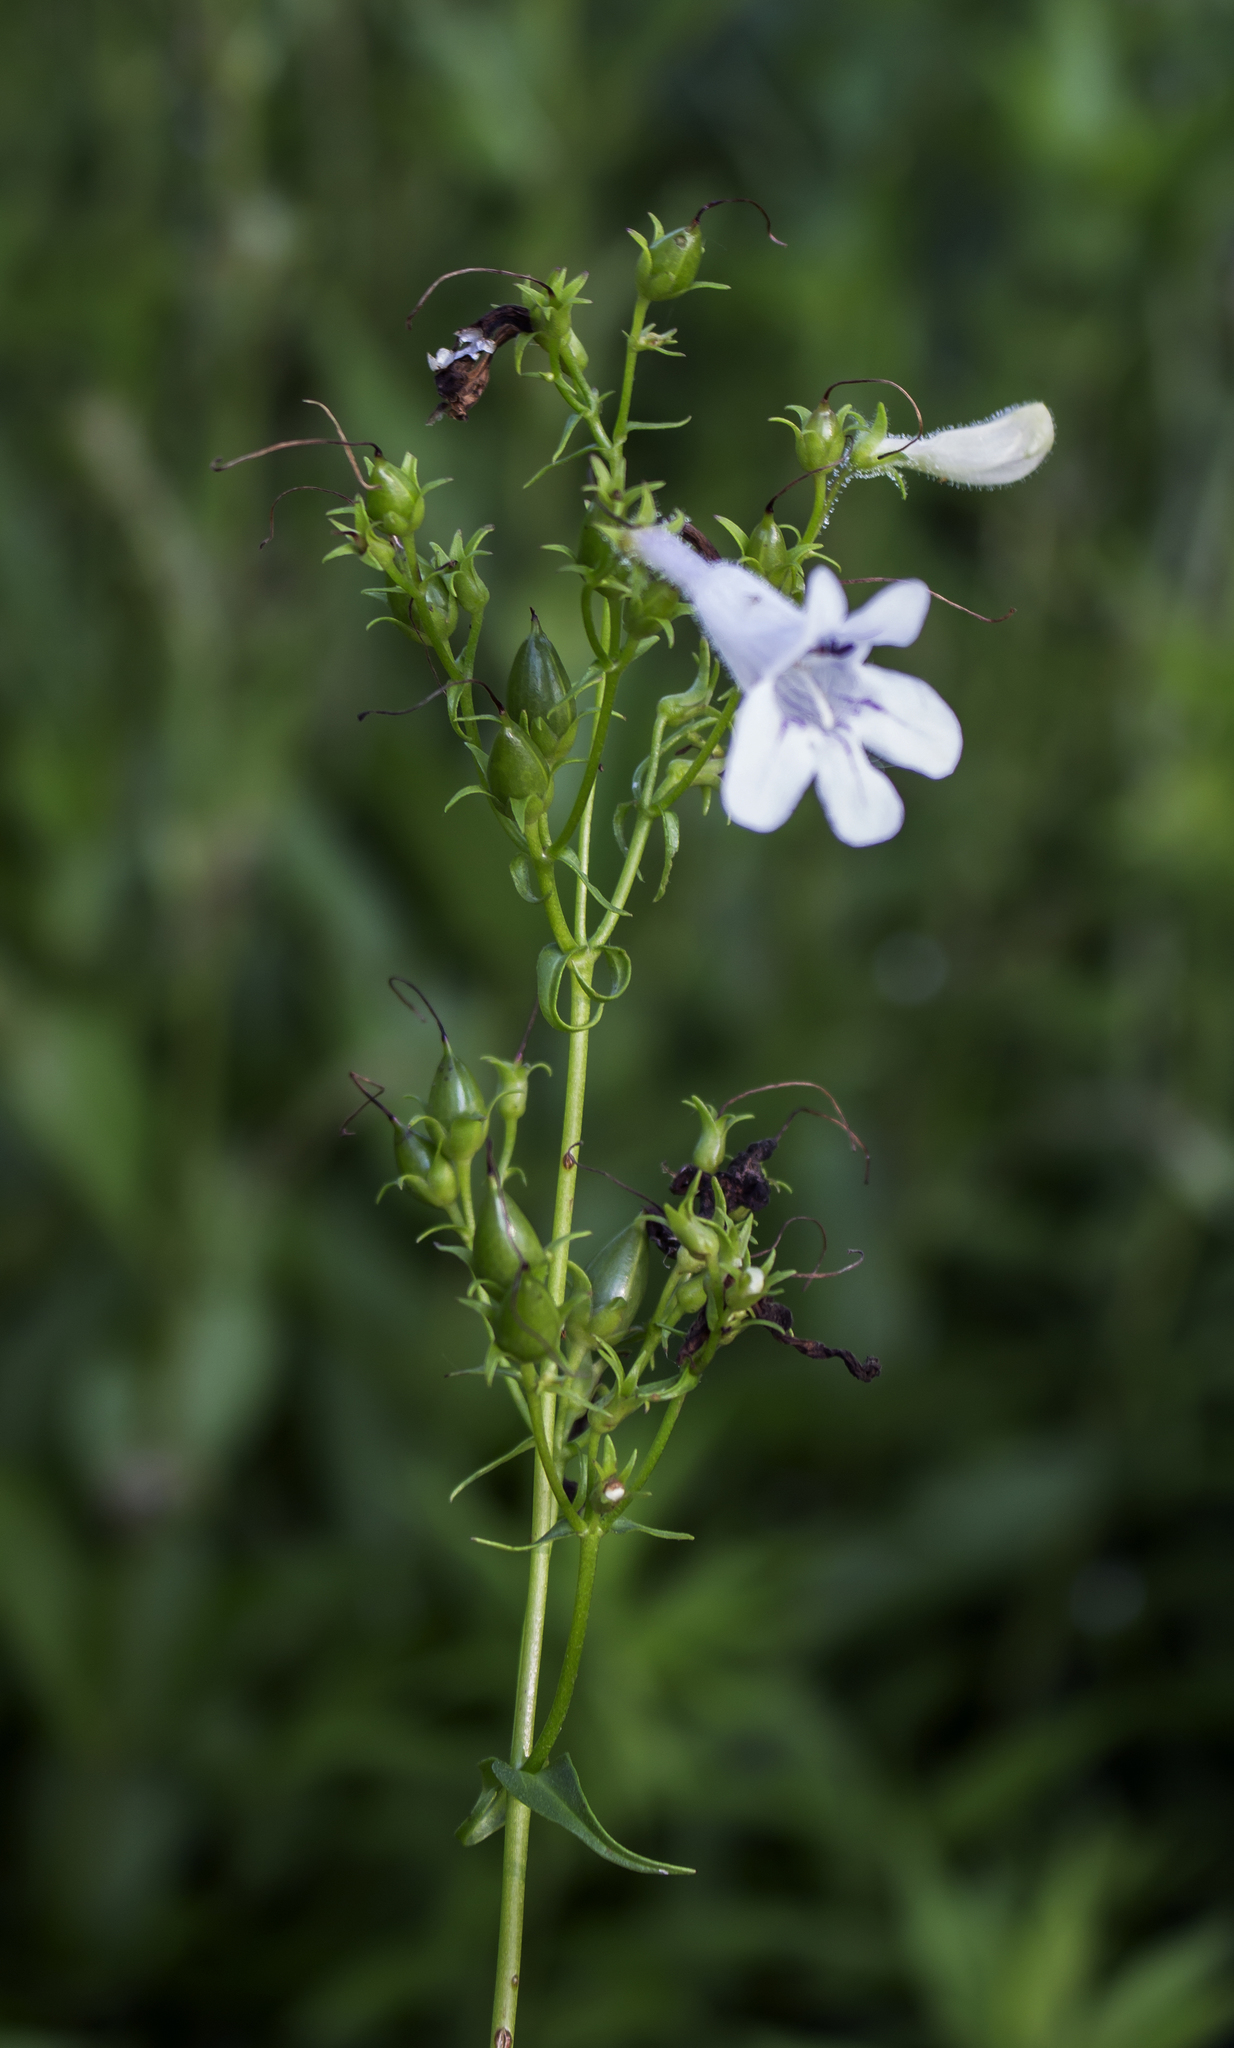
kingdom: Plantae
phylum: Tracheophyta
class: Magnoliopsida
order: Lamiales
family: Plantaginaceae
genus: Penstemon
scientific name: Penstemon digitalis
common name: Foxglove beardtongue
